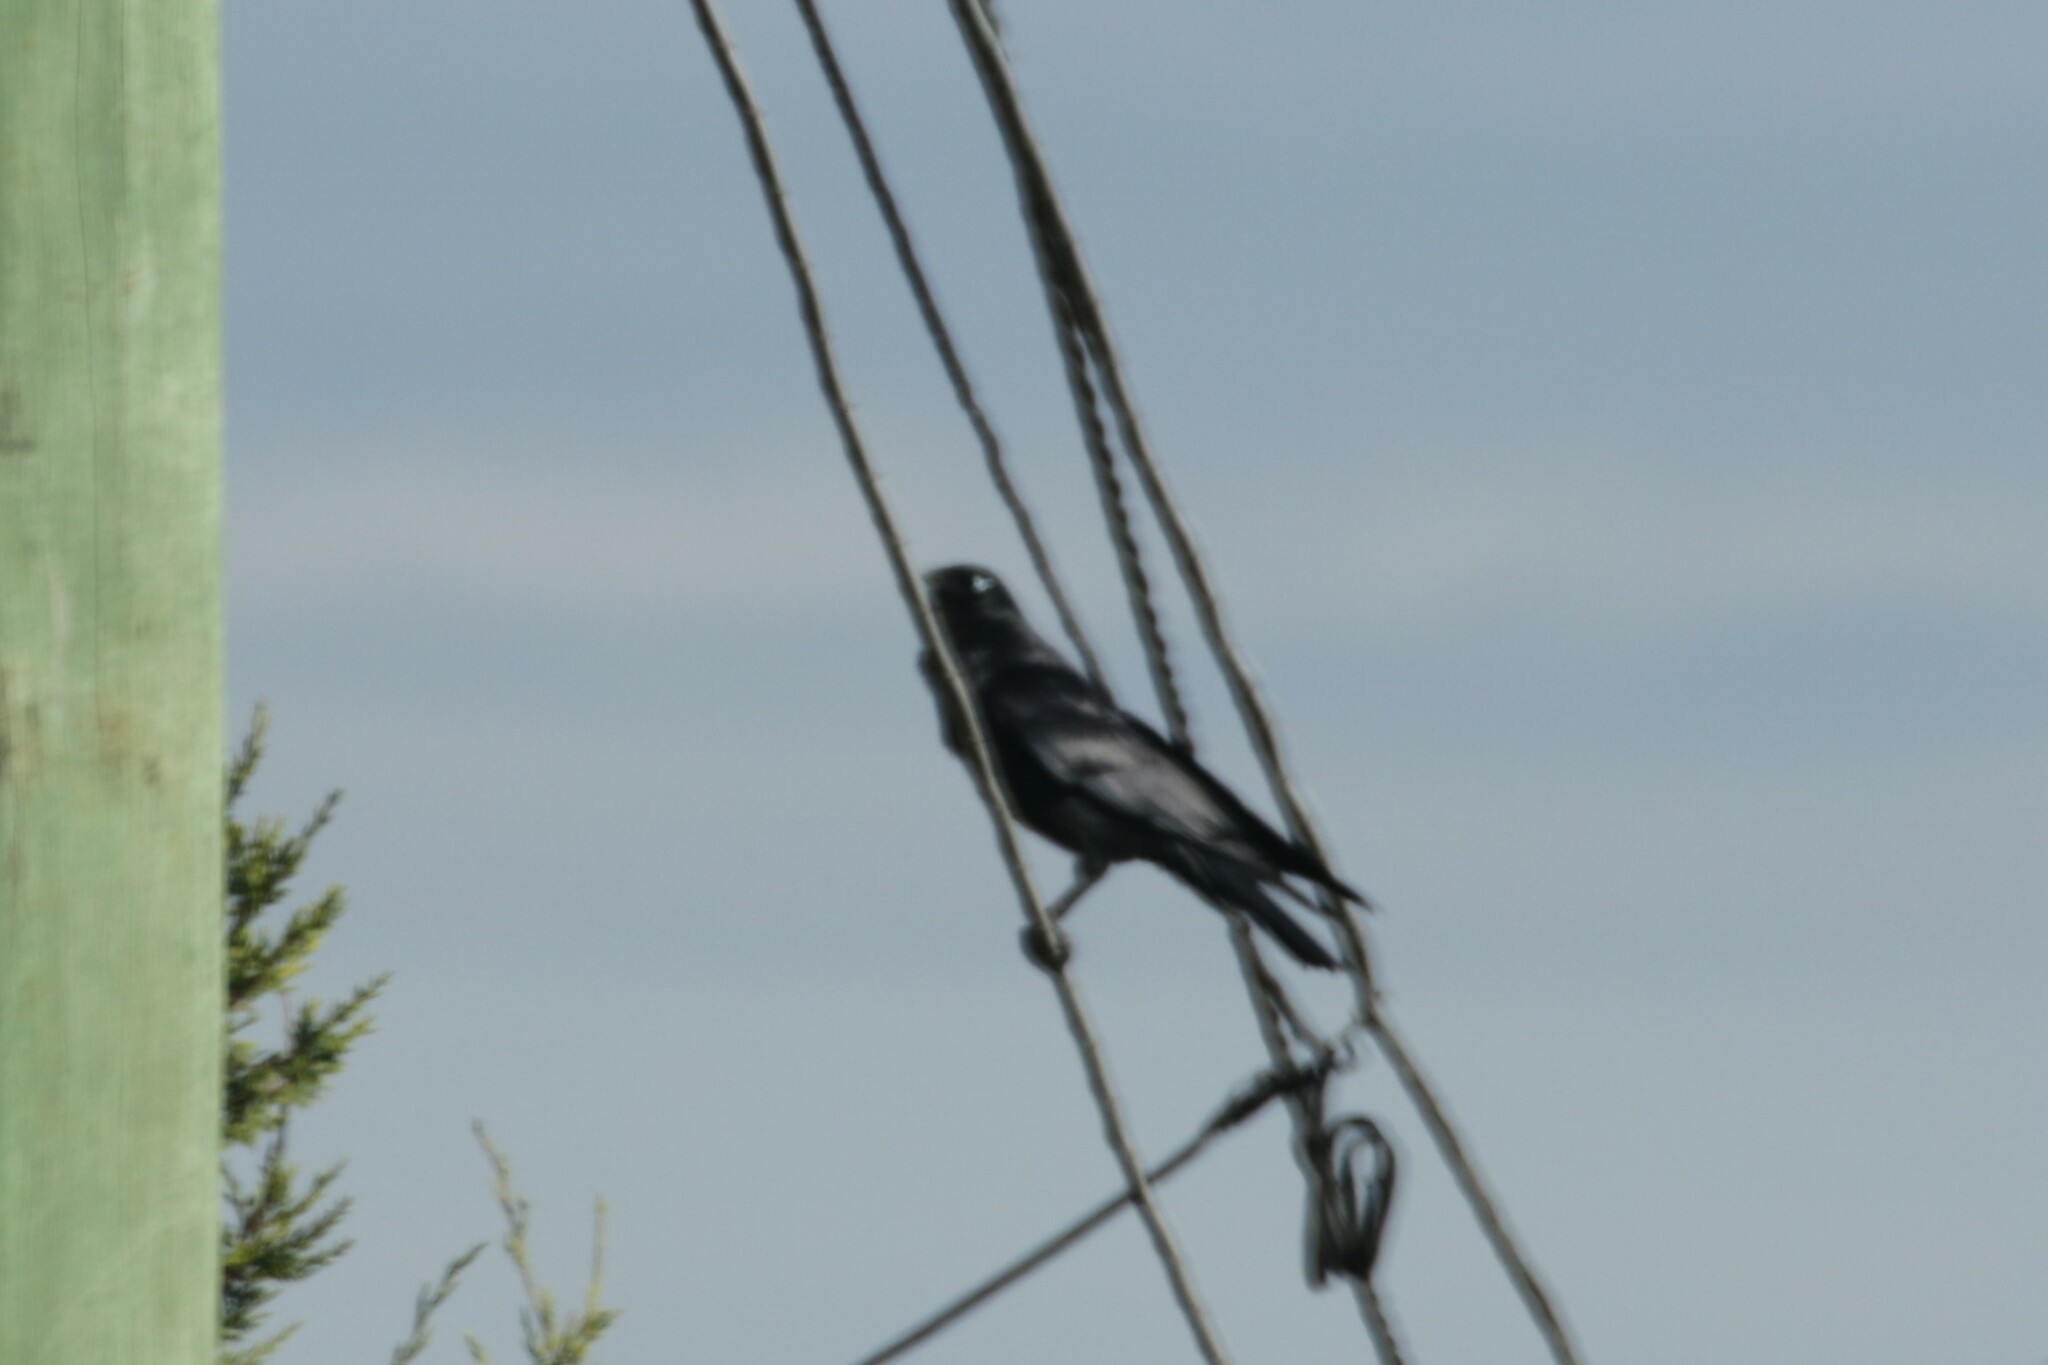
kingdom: Animalia
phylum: Chordata
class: Aves
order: Passeriformes
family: Corvidae
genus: Corvus
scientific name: Corvus mellori
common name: Little raven
